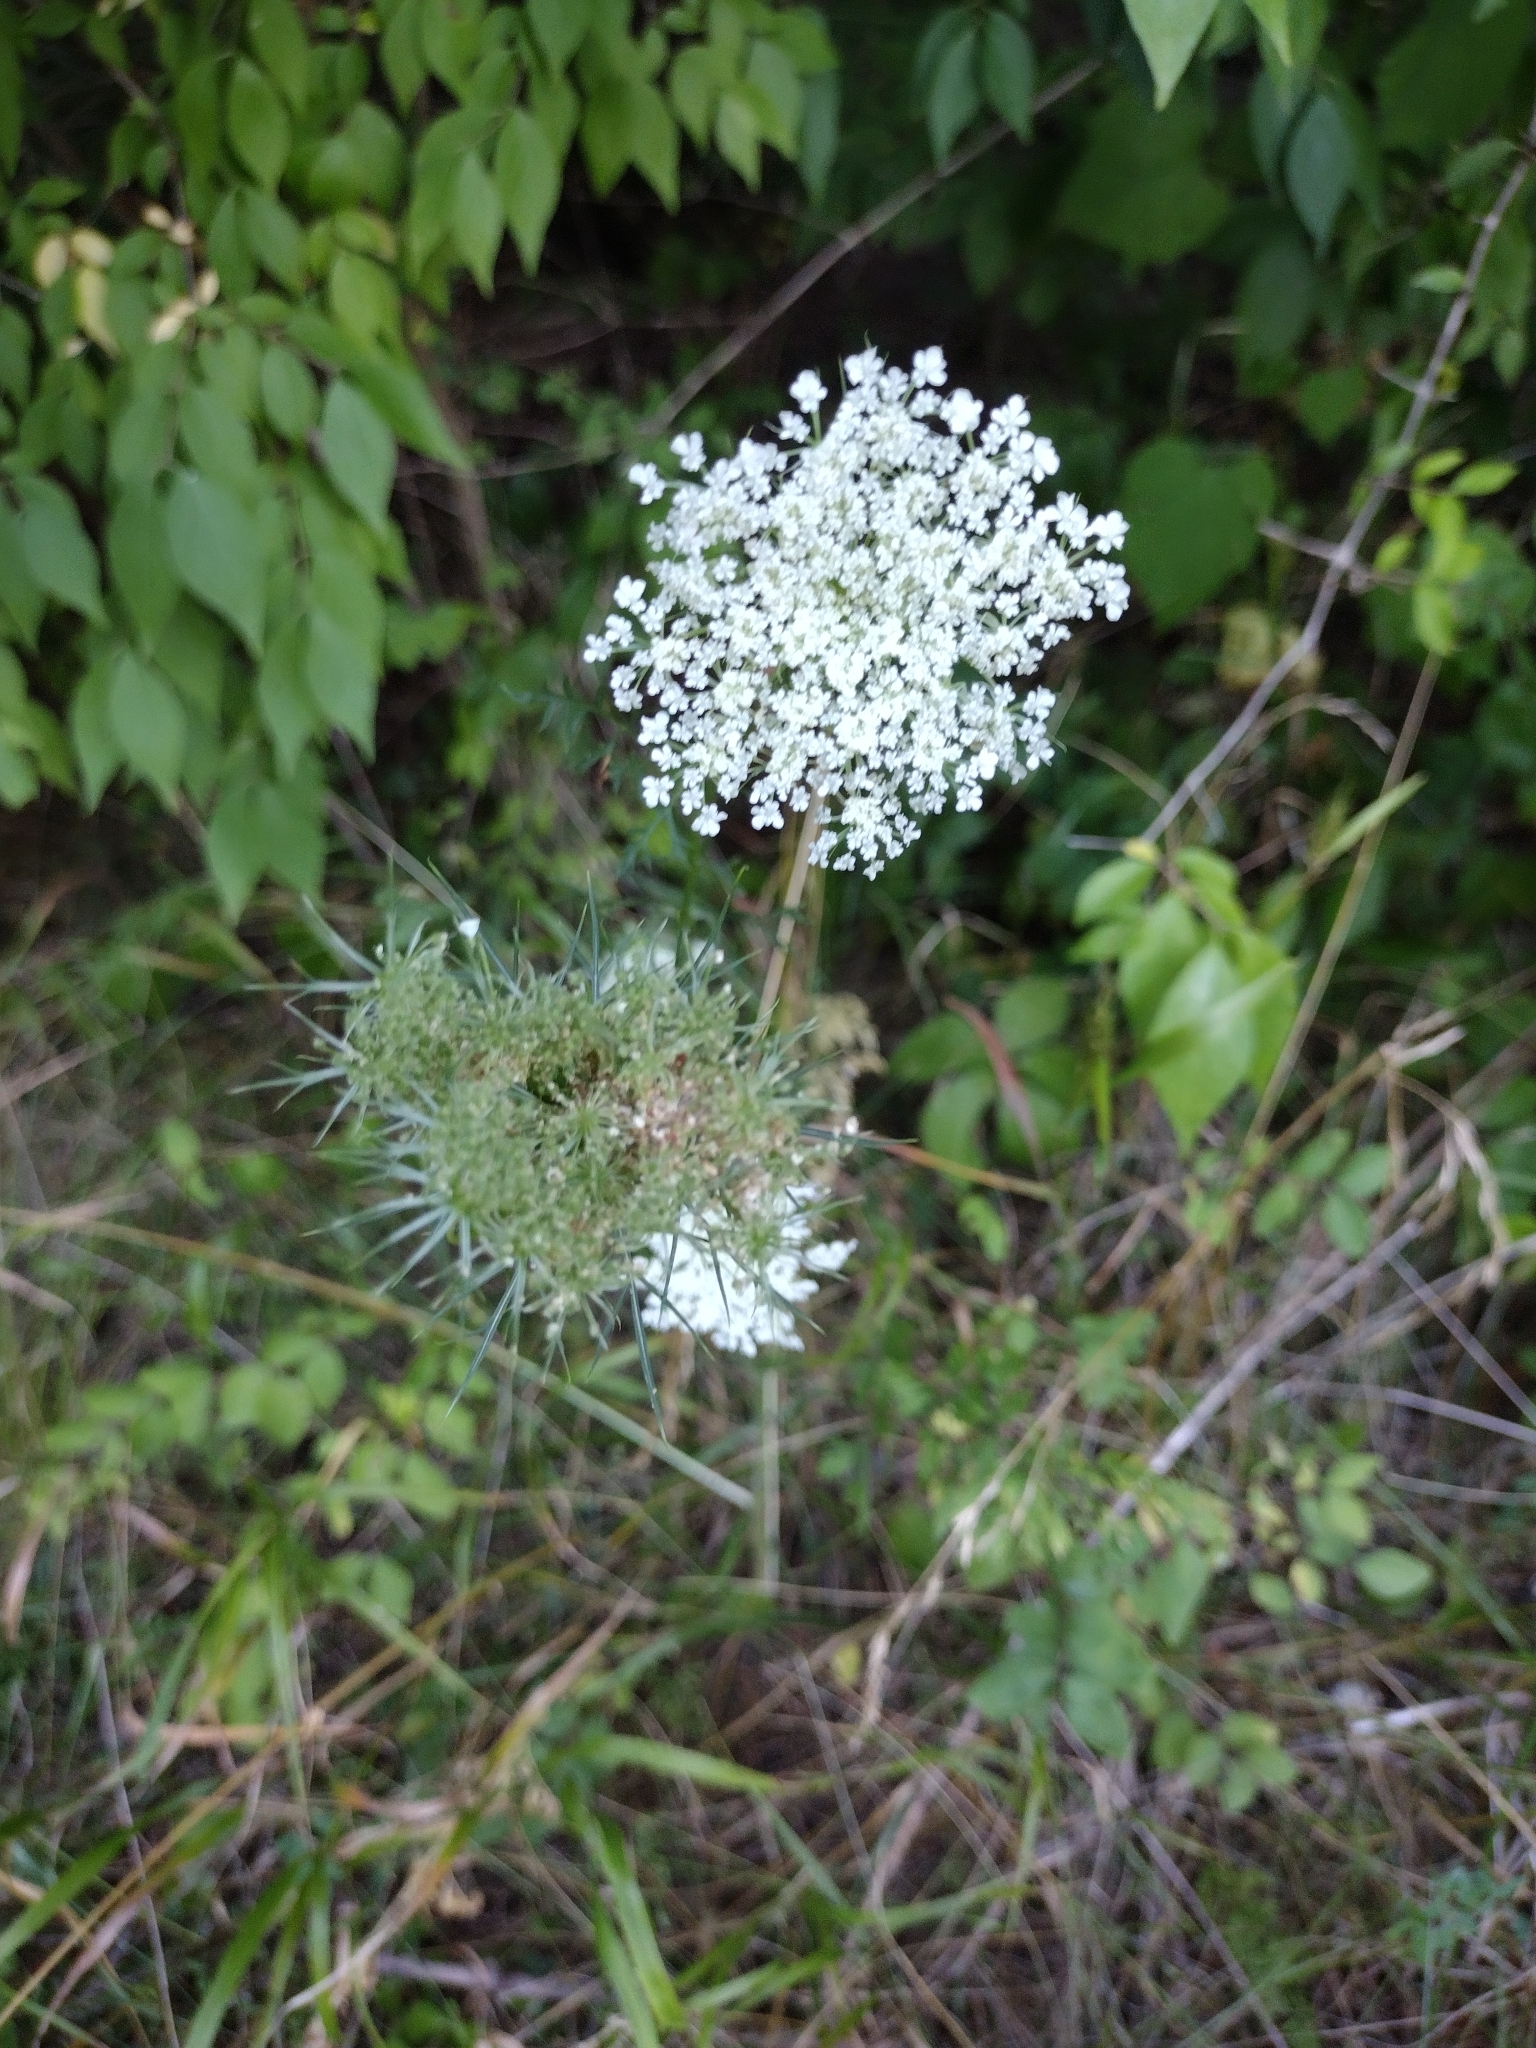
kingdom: Plantae
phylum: Tracheophyta
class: Magnoliopsida
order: Apiales
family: Apiaceae
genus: Daucus
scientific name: Daucus carota
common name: Wild carrot
